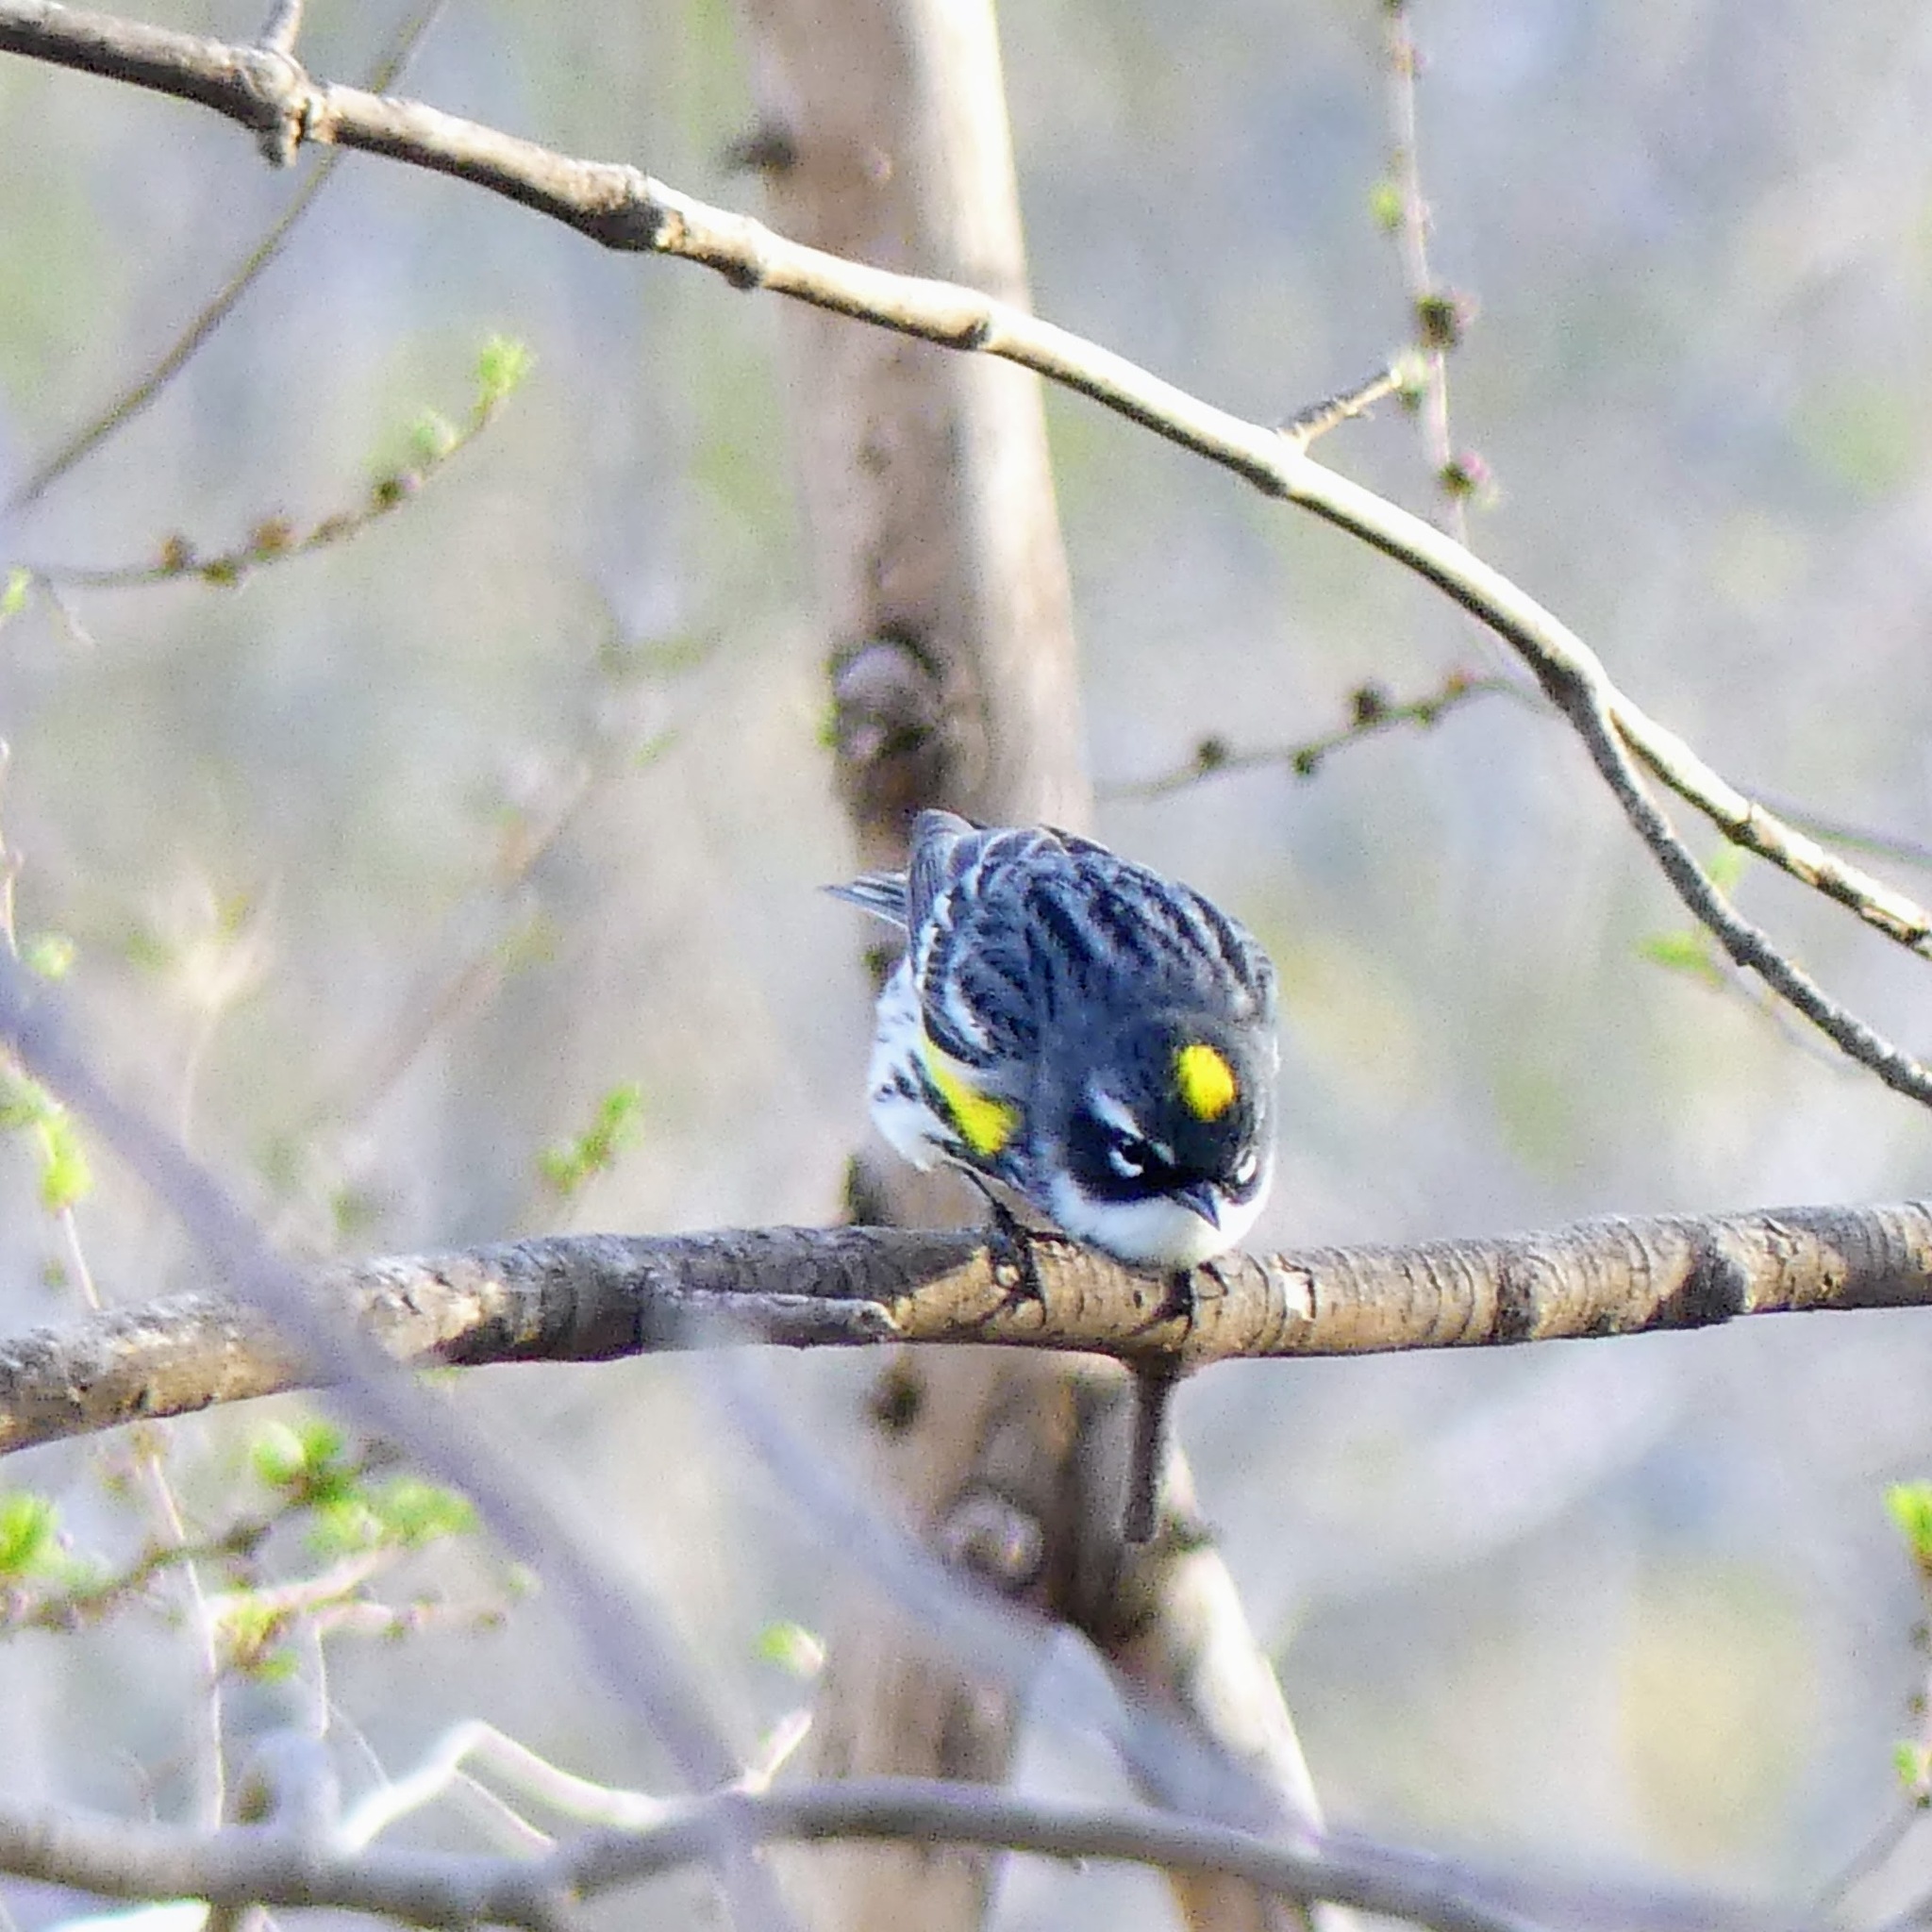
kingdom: Animalia
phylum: Chordata
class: Aves
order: Passeriformes
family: Parulidae
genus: Setophaga
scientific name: Setophaga coronata
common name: Myrtle warbler
